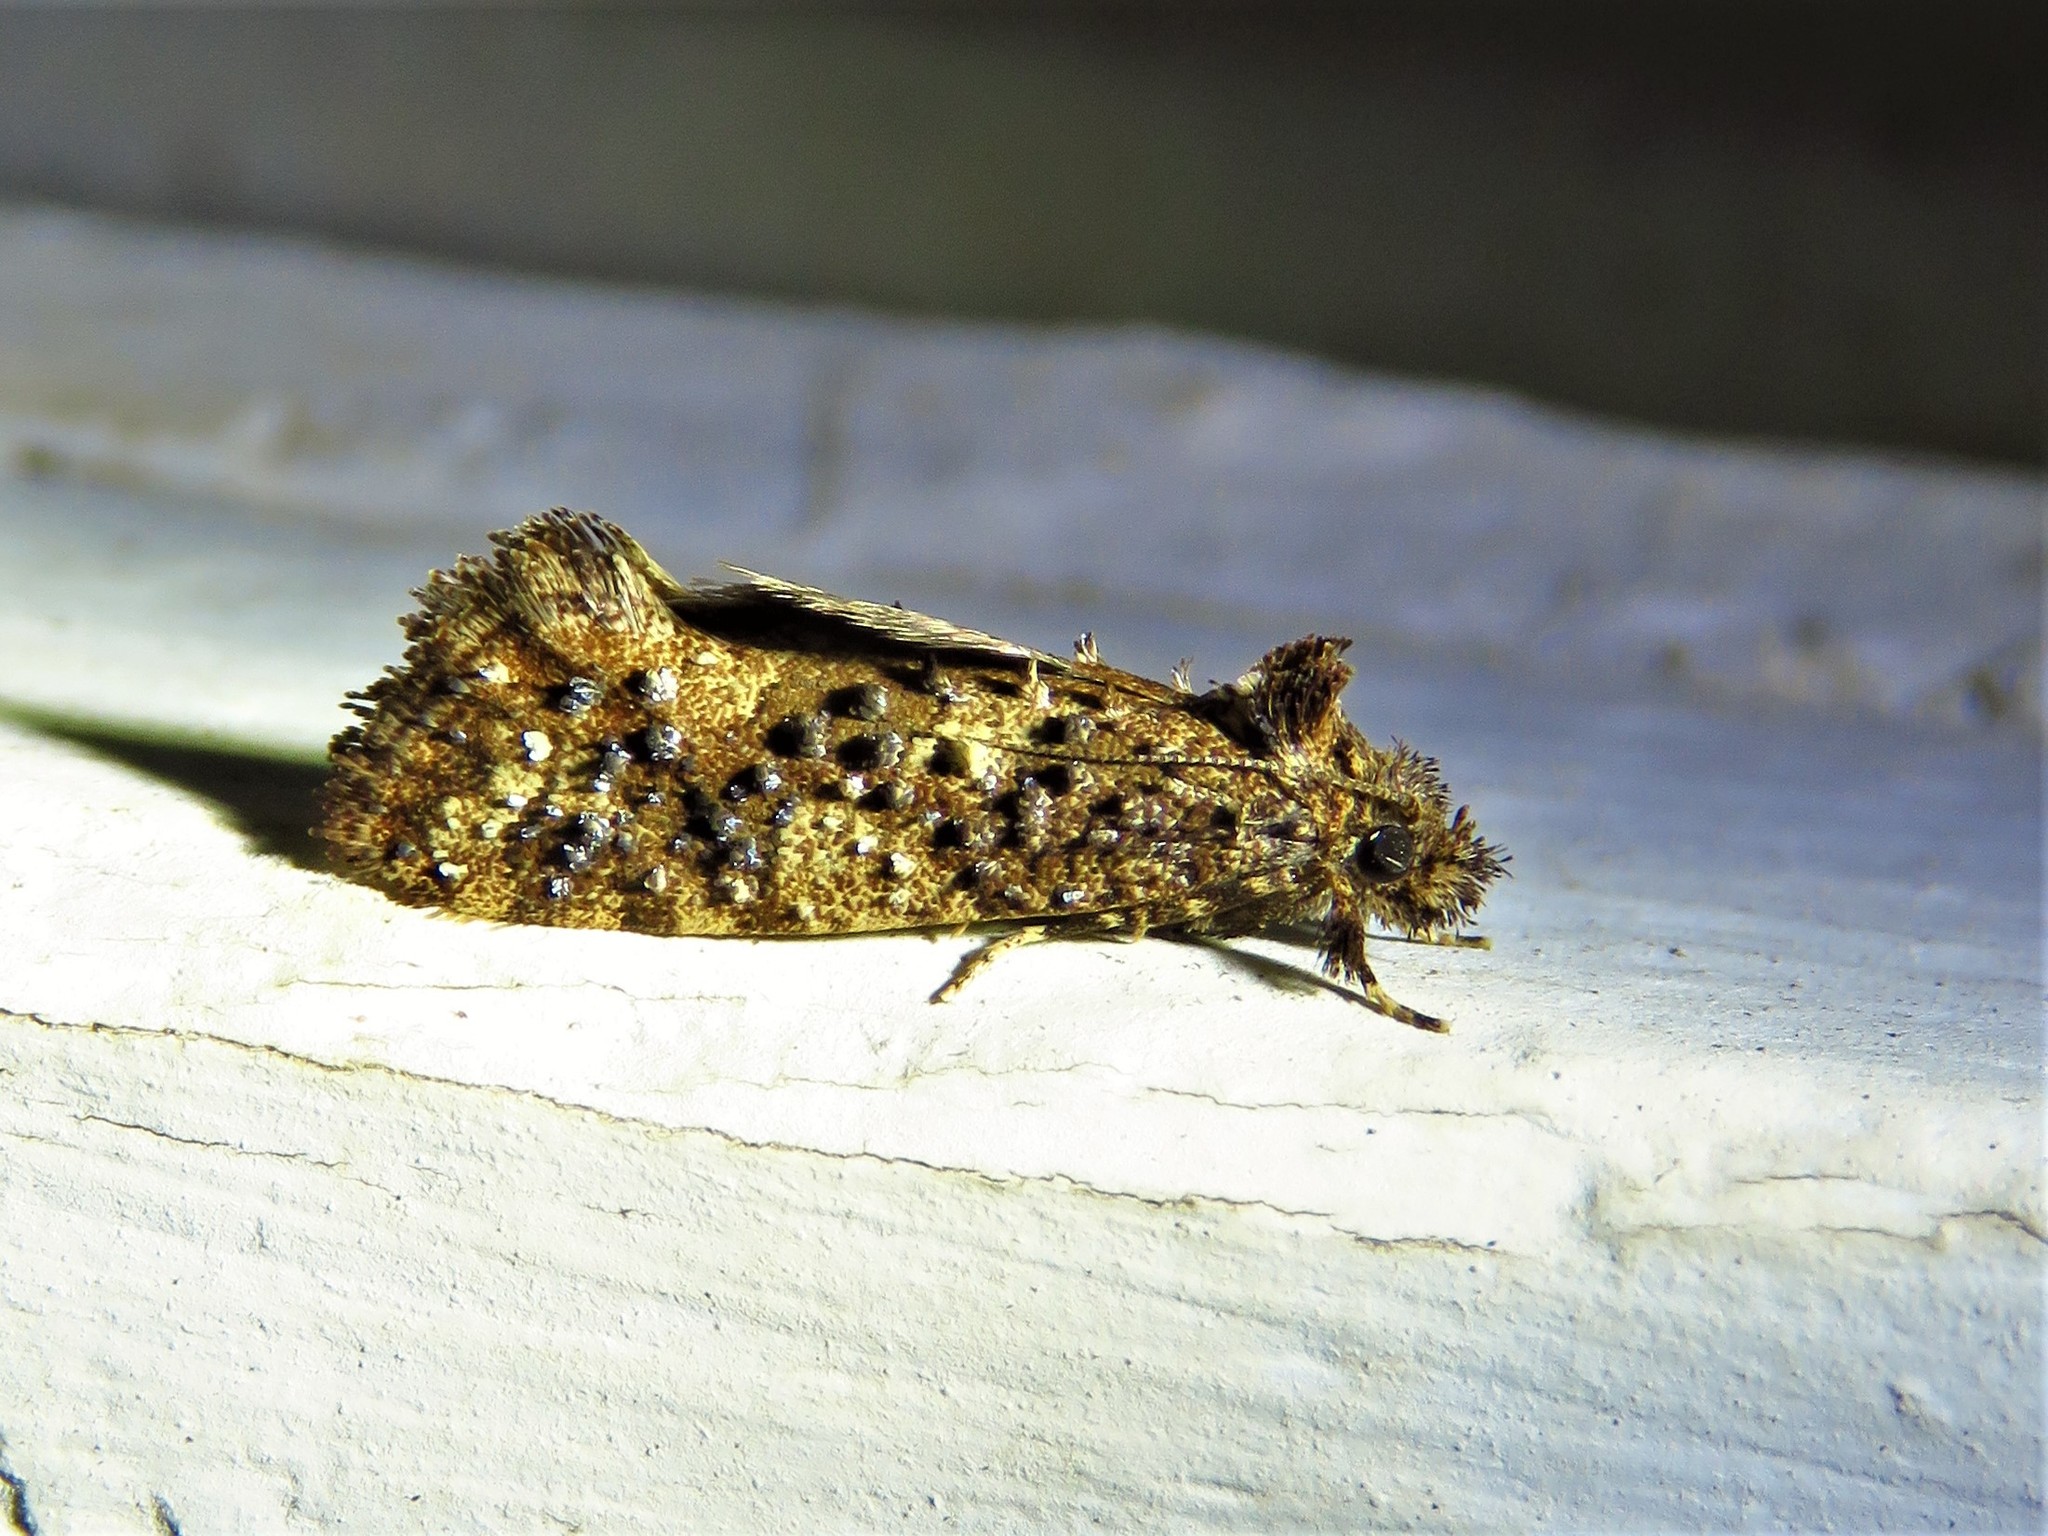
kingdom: Animalia
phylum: Arthropoda
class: Insecta
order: Lepidoptera
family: Tineidae
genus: Acrolophus
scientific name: Acrolophus cressoni
